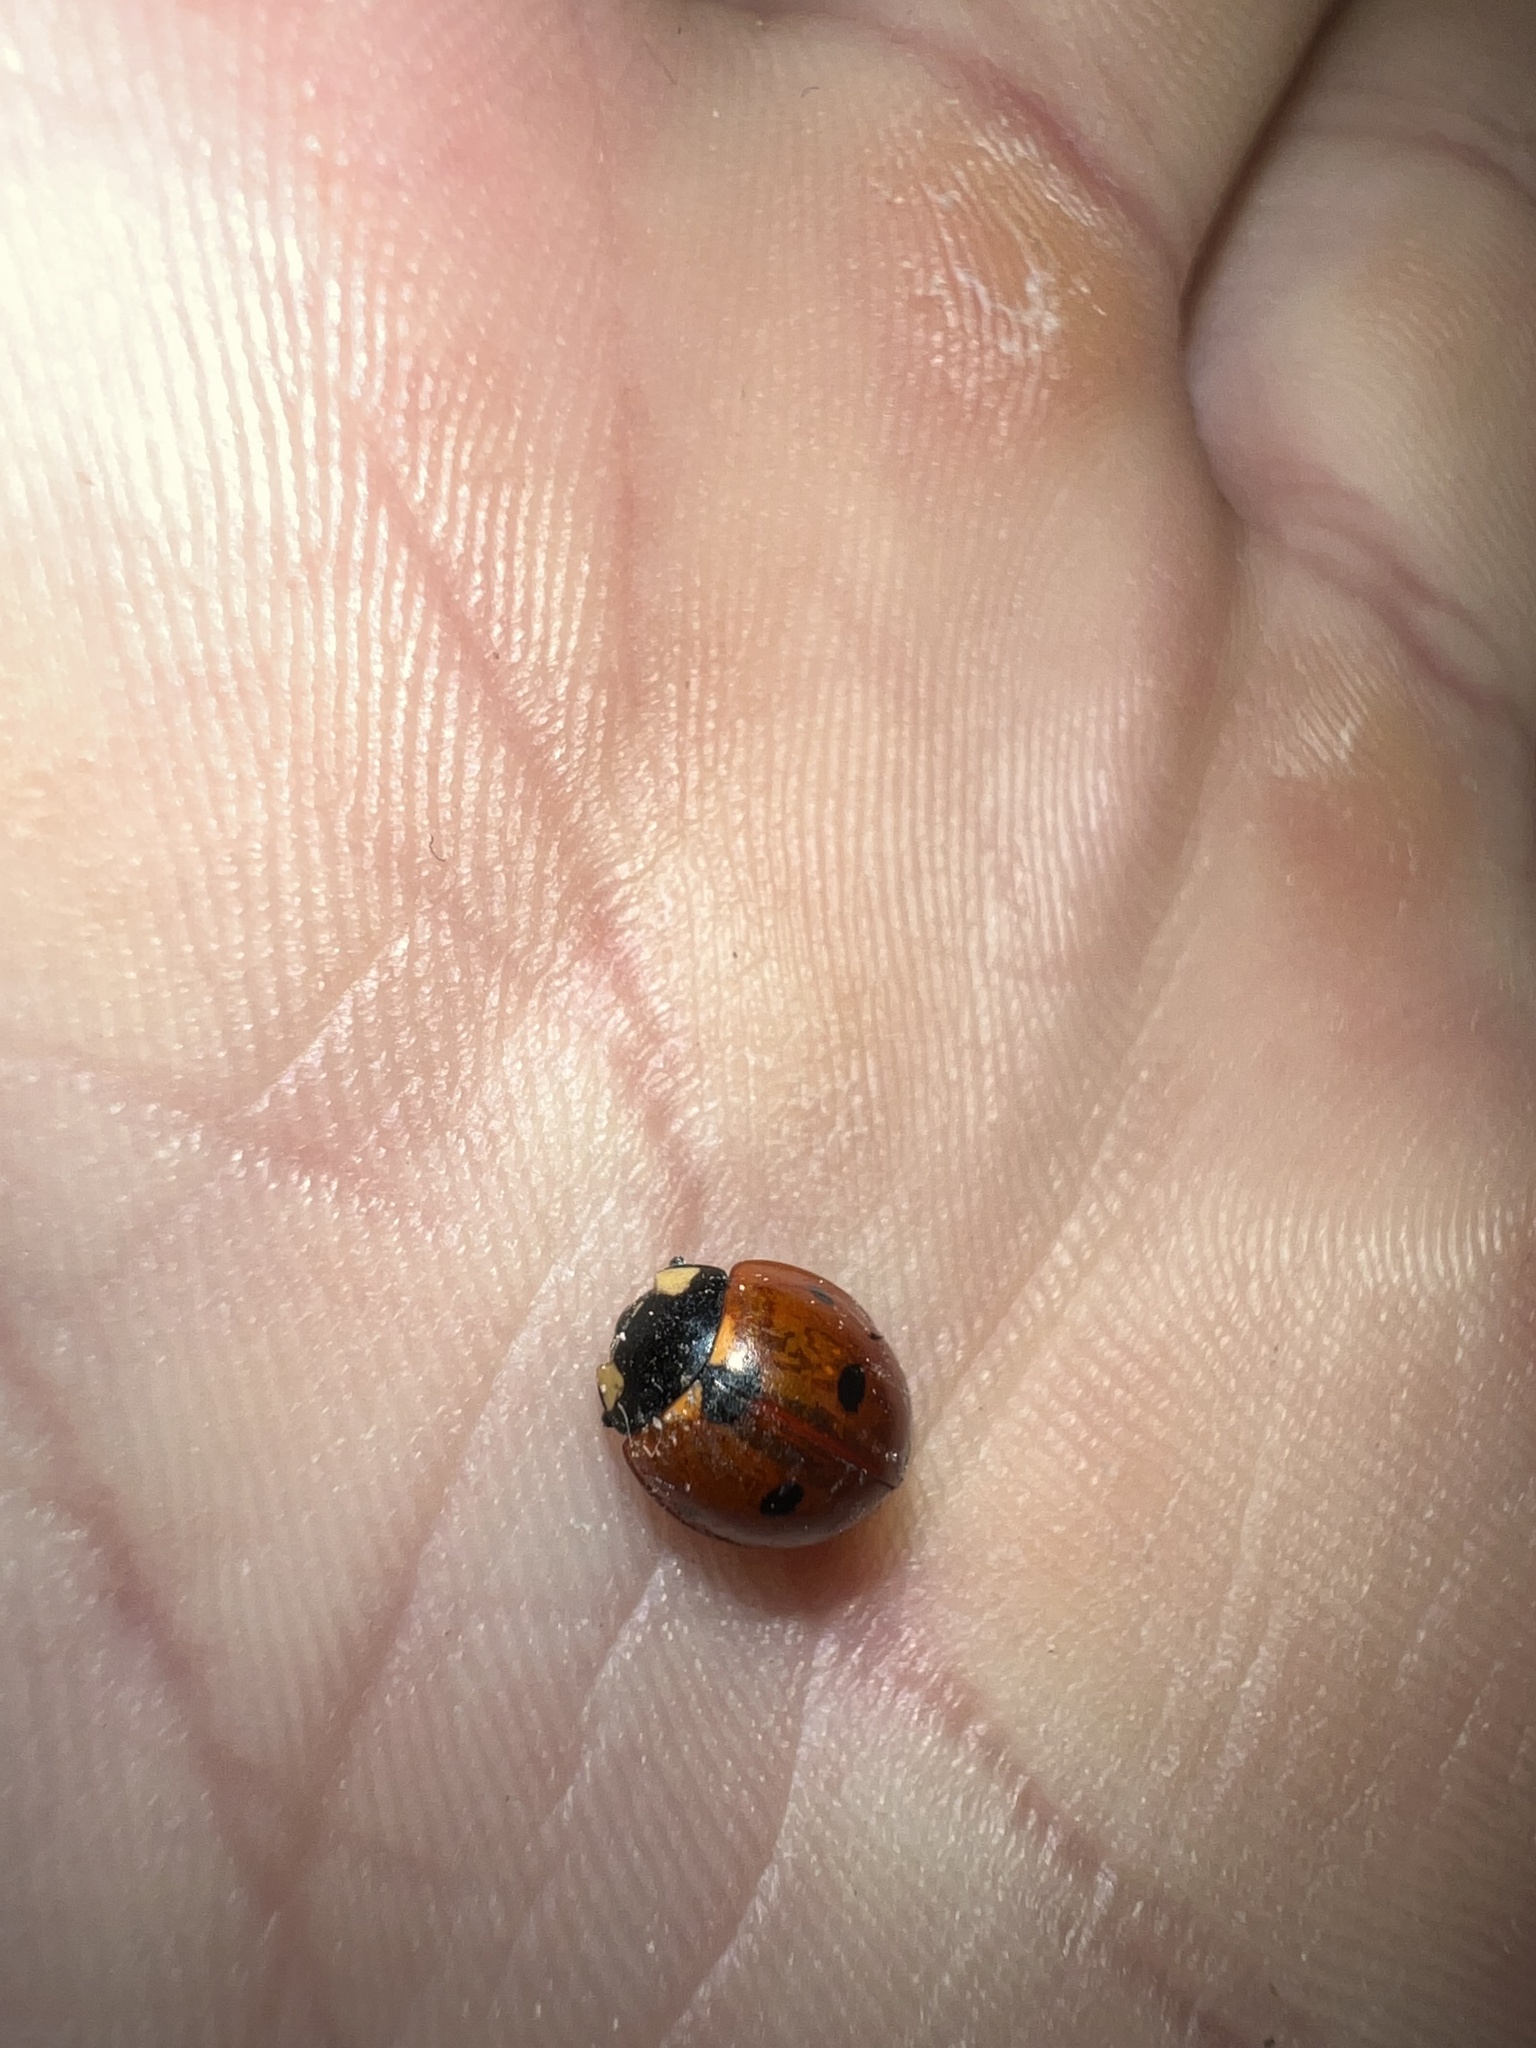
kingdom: Animalia
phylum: Arthropoda
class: Insecta
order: Coleoptera
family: Coccinellidae
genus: Coccinella
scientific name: Coccinella septempunctata
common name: Sevenspotted lady beetle
